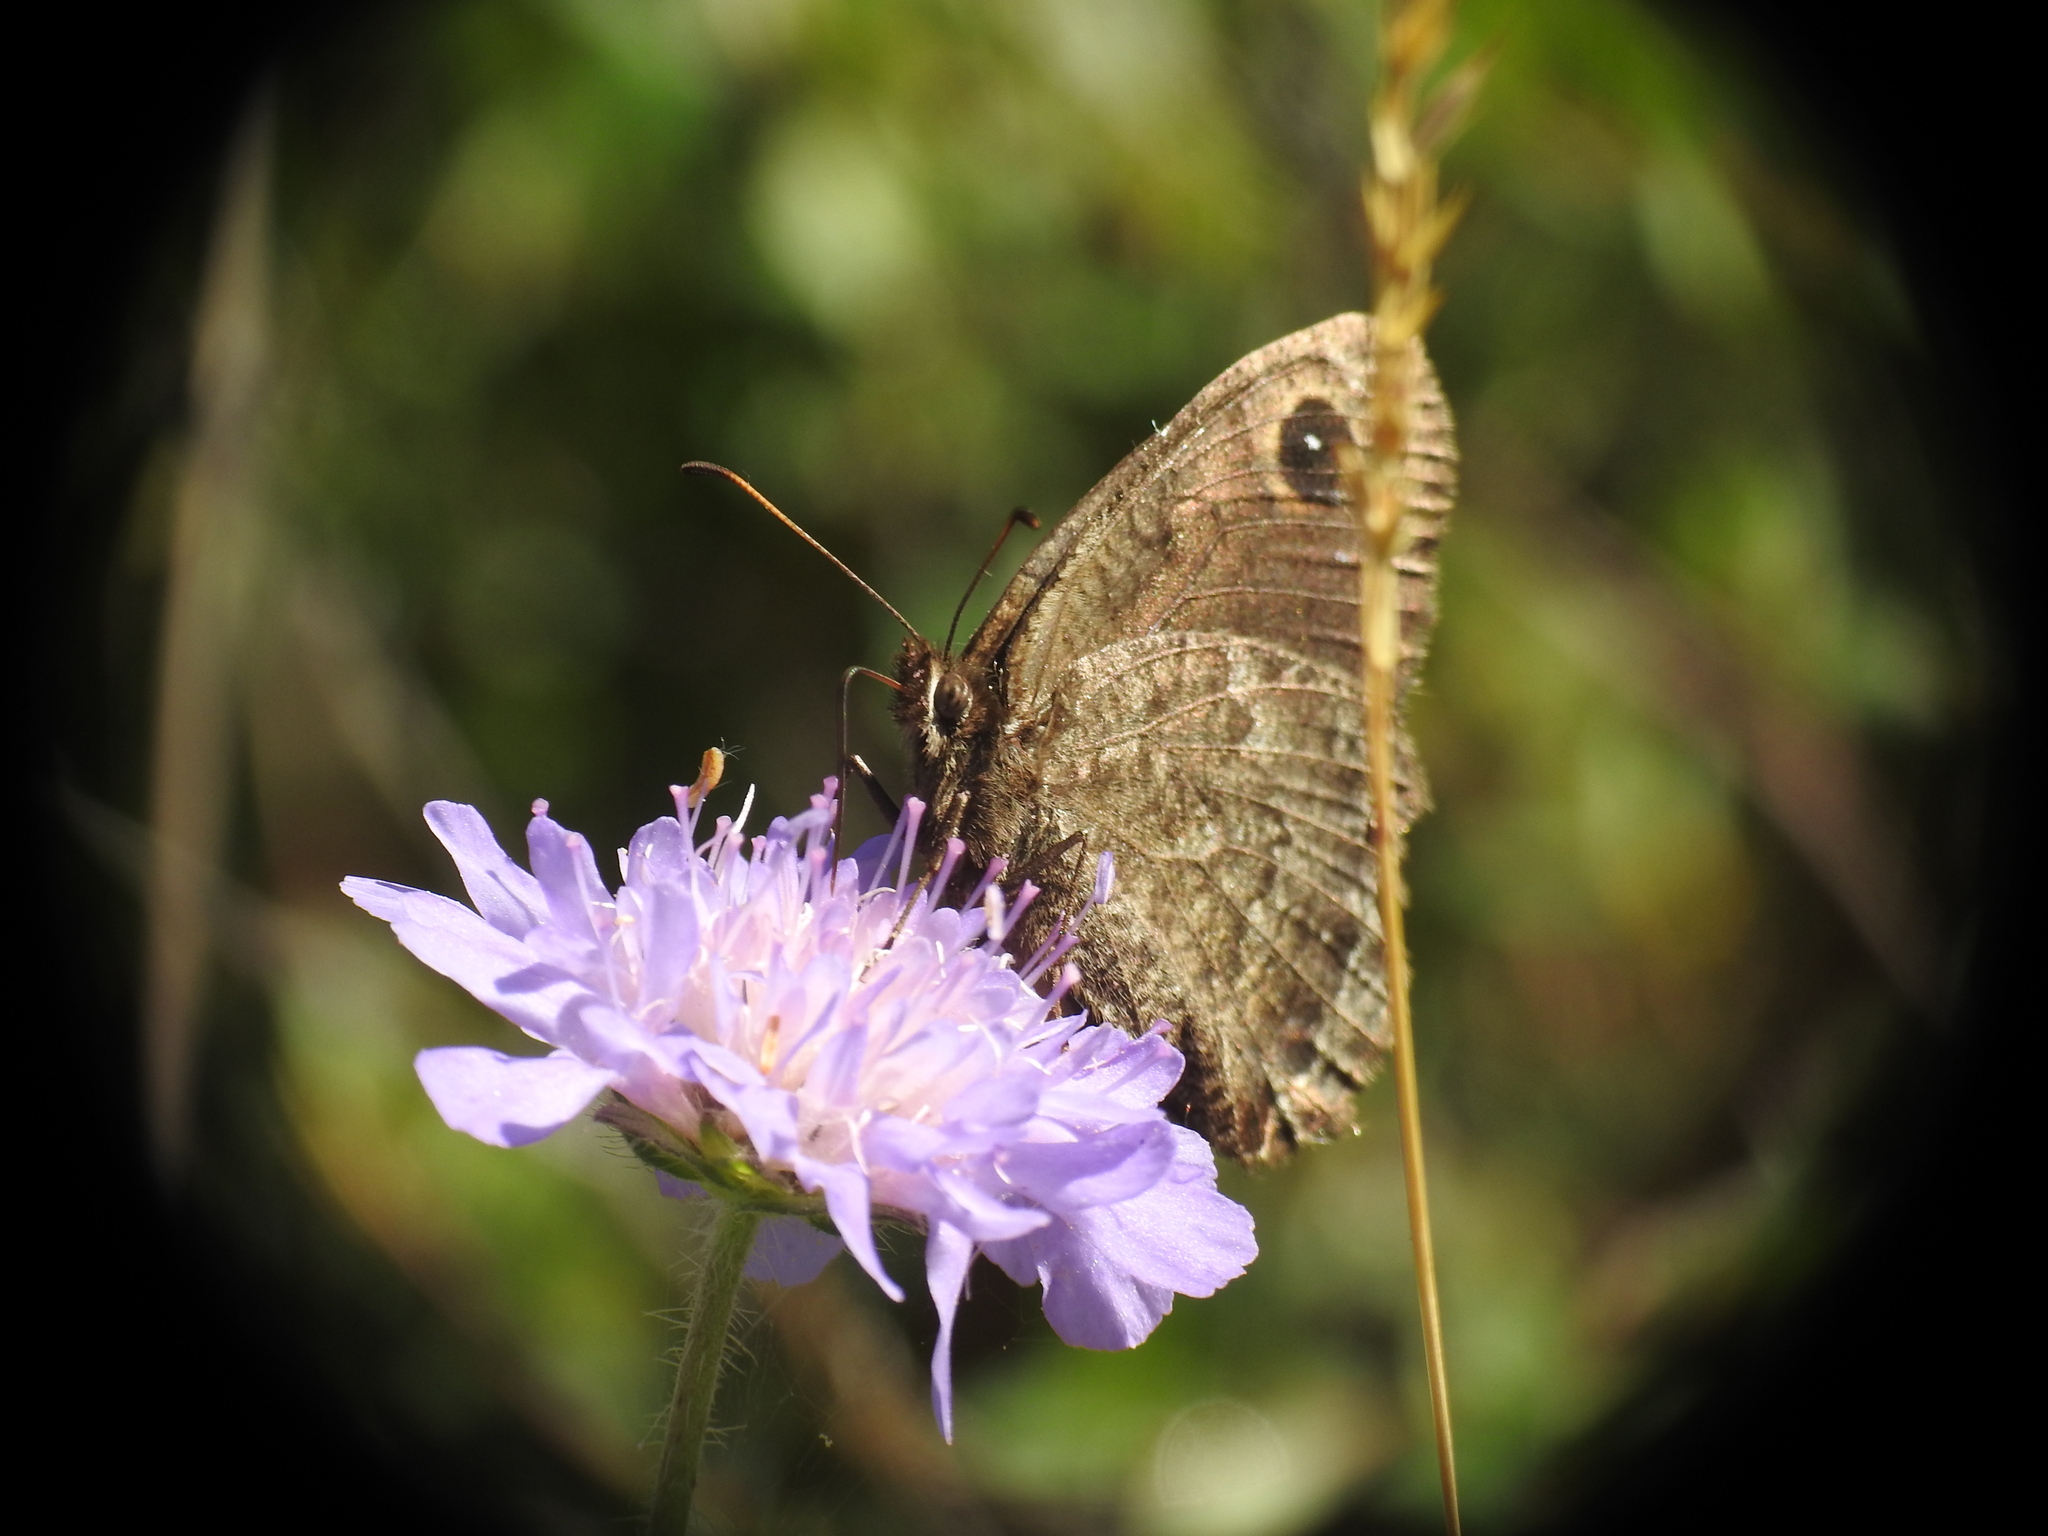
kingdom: Animalia
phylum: Arthropoda
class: Insecta
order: Lepidoptera
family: Nymphalidae
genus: Satyrus
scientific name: Satyrus actaea
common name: Black satyr
